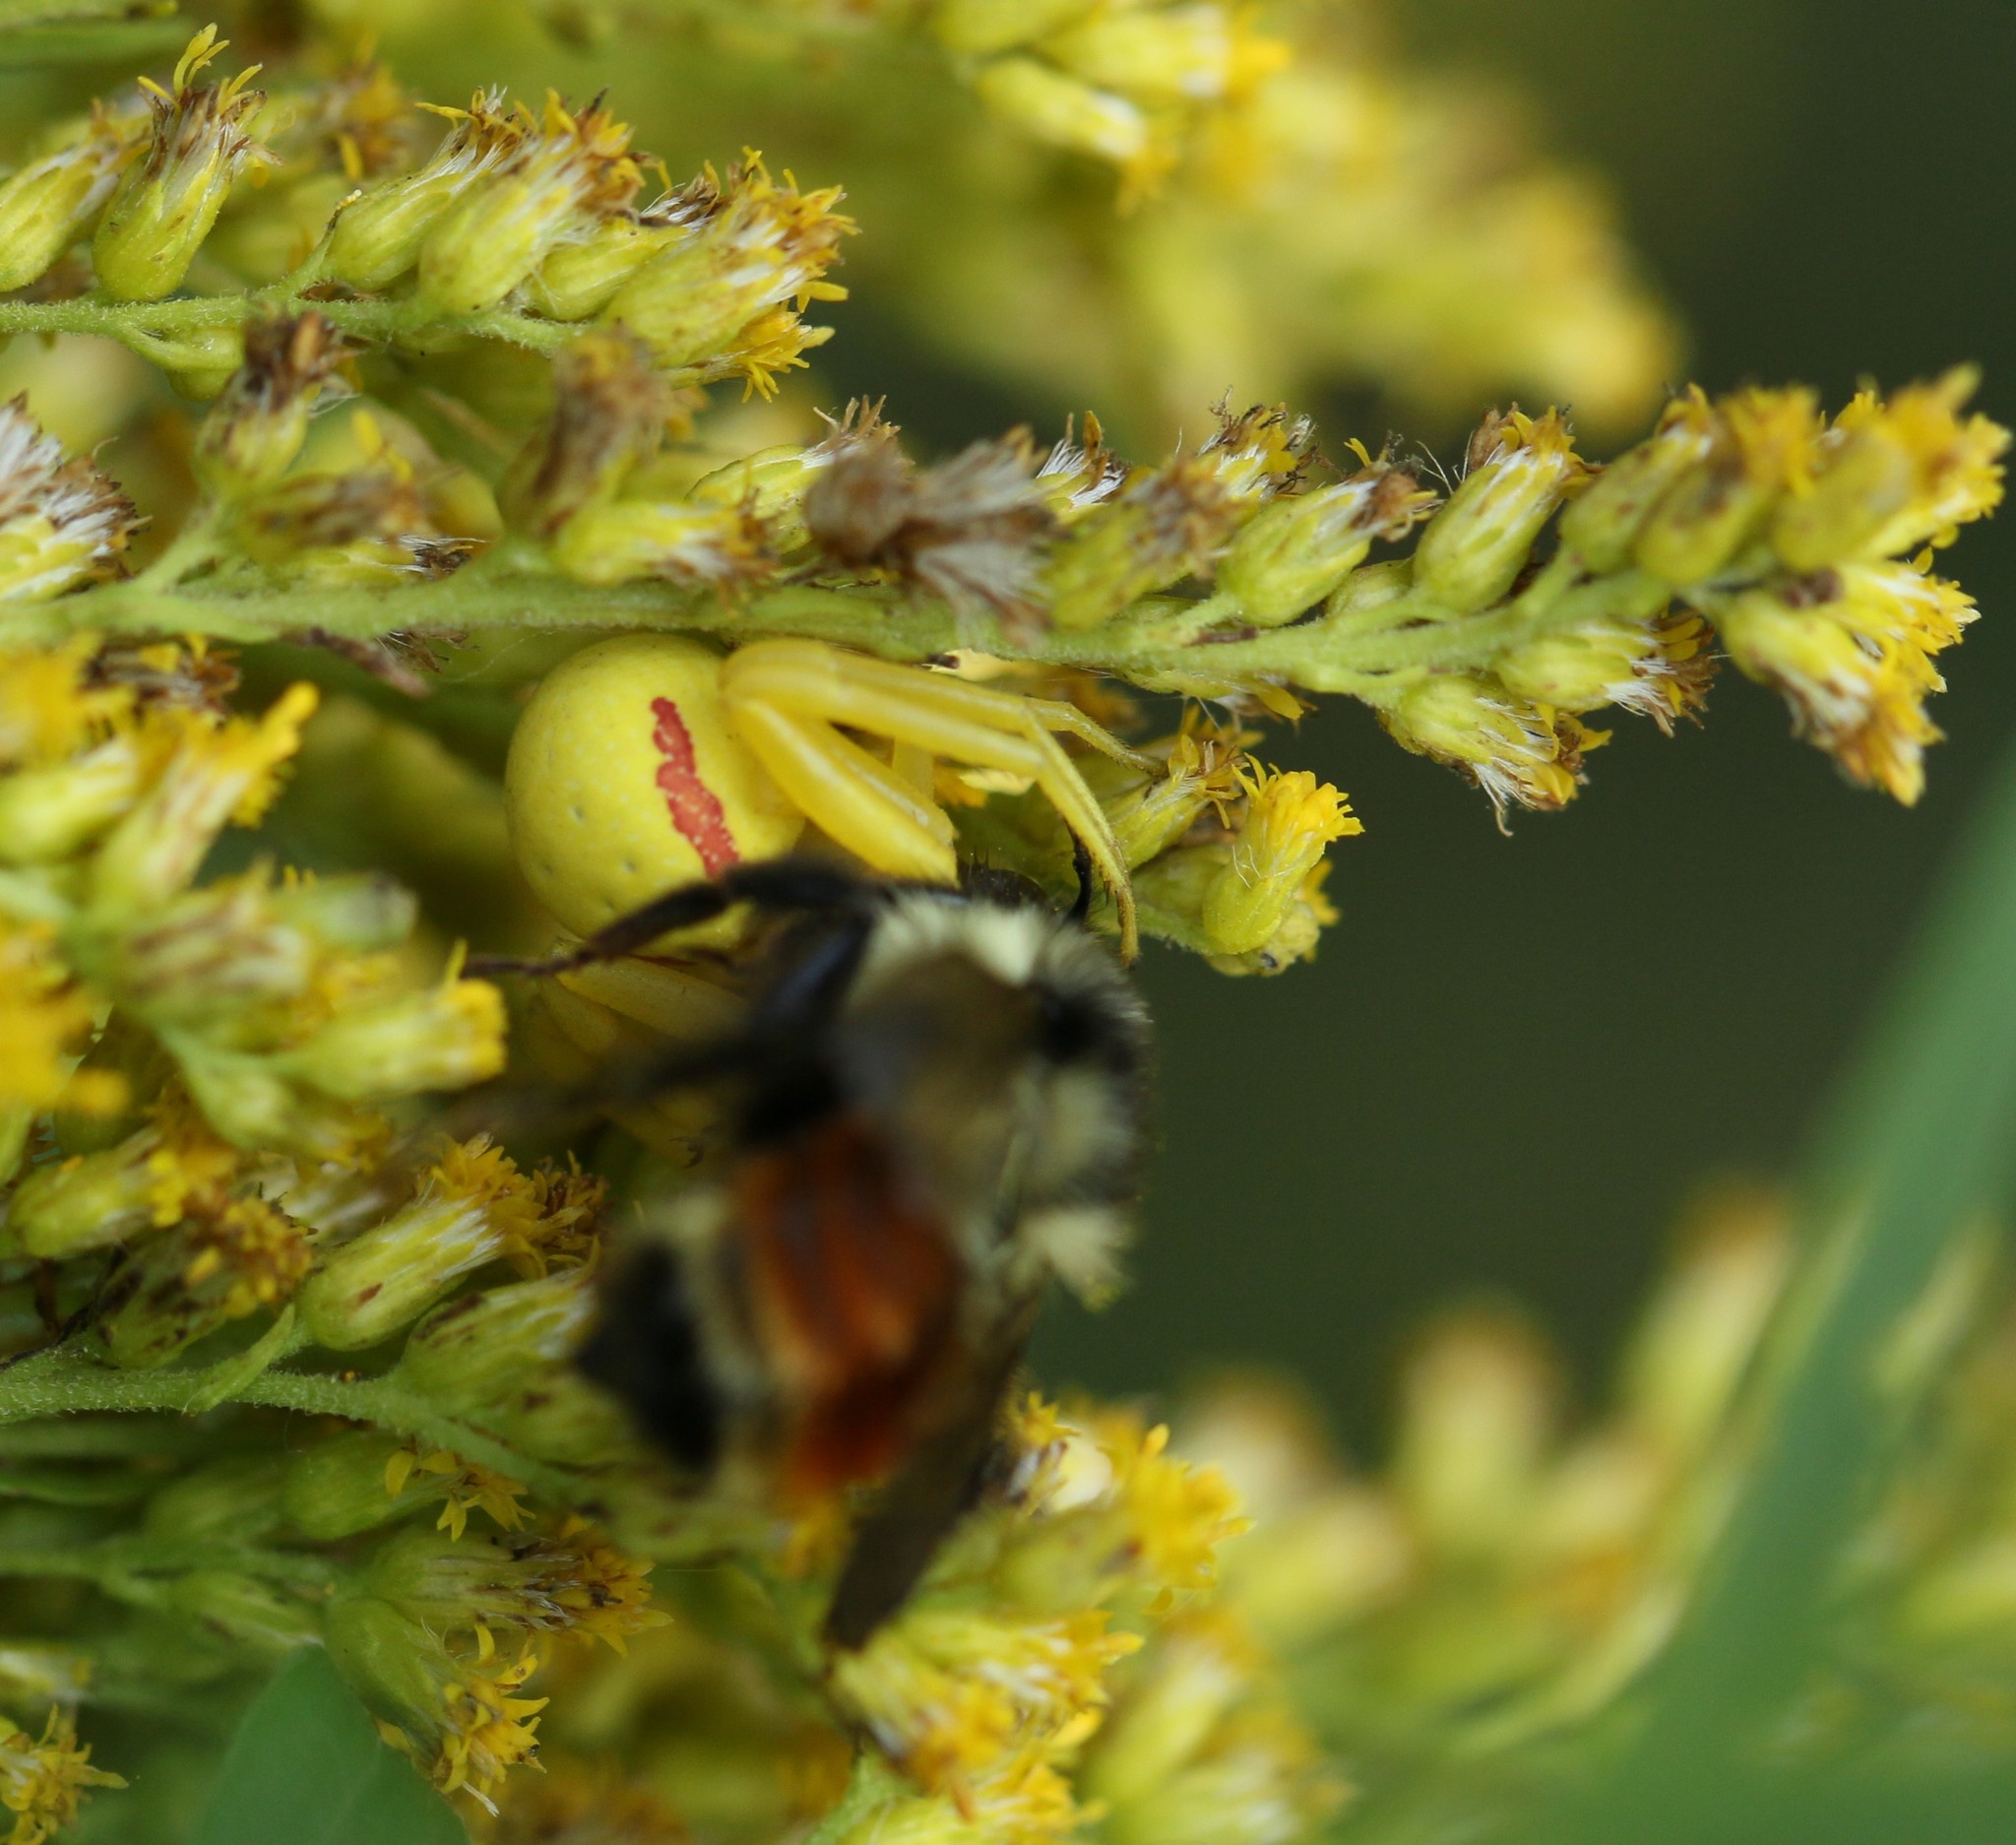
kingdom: Animalia
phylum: Arthropoda
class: Arachnida
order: Araneae
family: Thomisidae
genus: Misumena
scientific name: Misumena vatia
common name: Goldenrod crab spider
